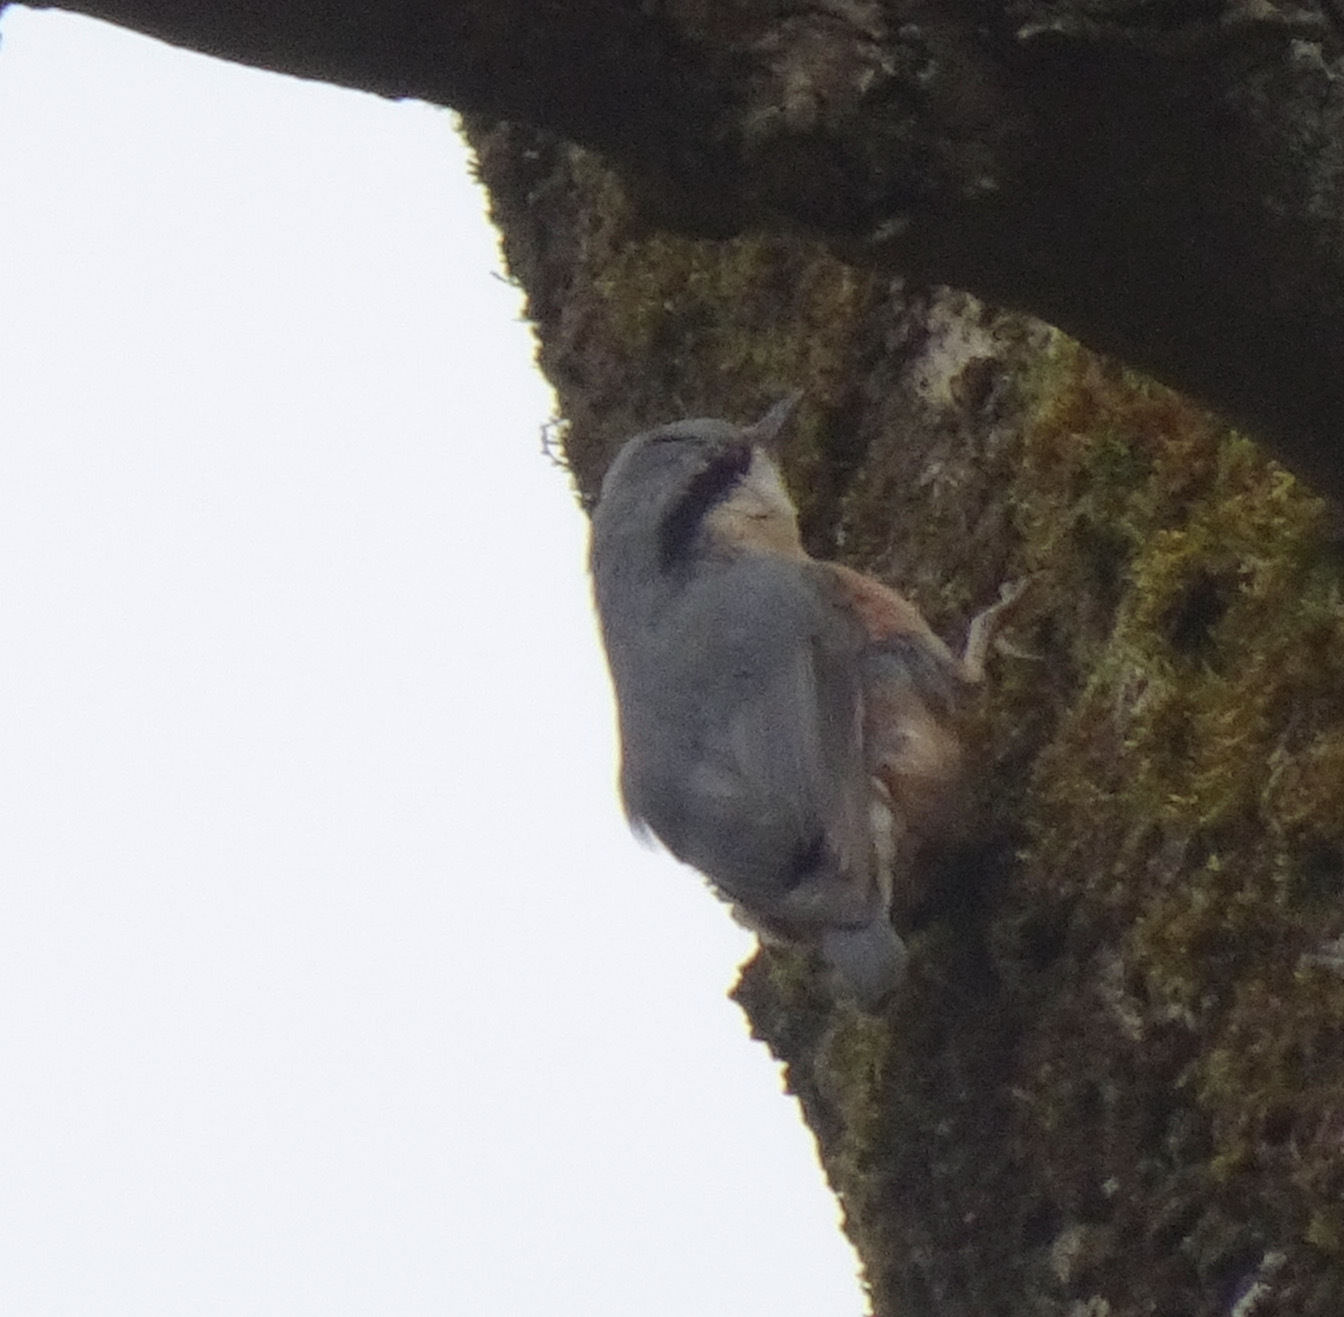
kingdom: Animalia
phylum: Chordata
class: Aves
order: Passeriformes
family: Sittidae
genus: Sitta
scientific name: Sitta europaea
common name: Eurasian nuthatch
